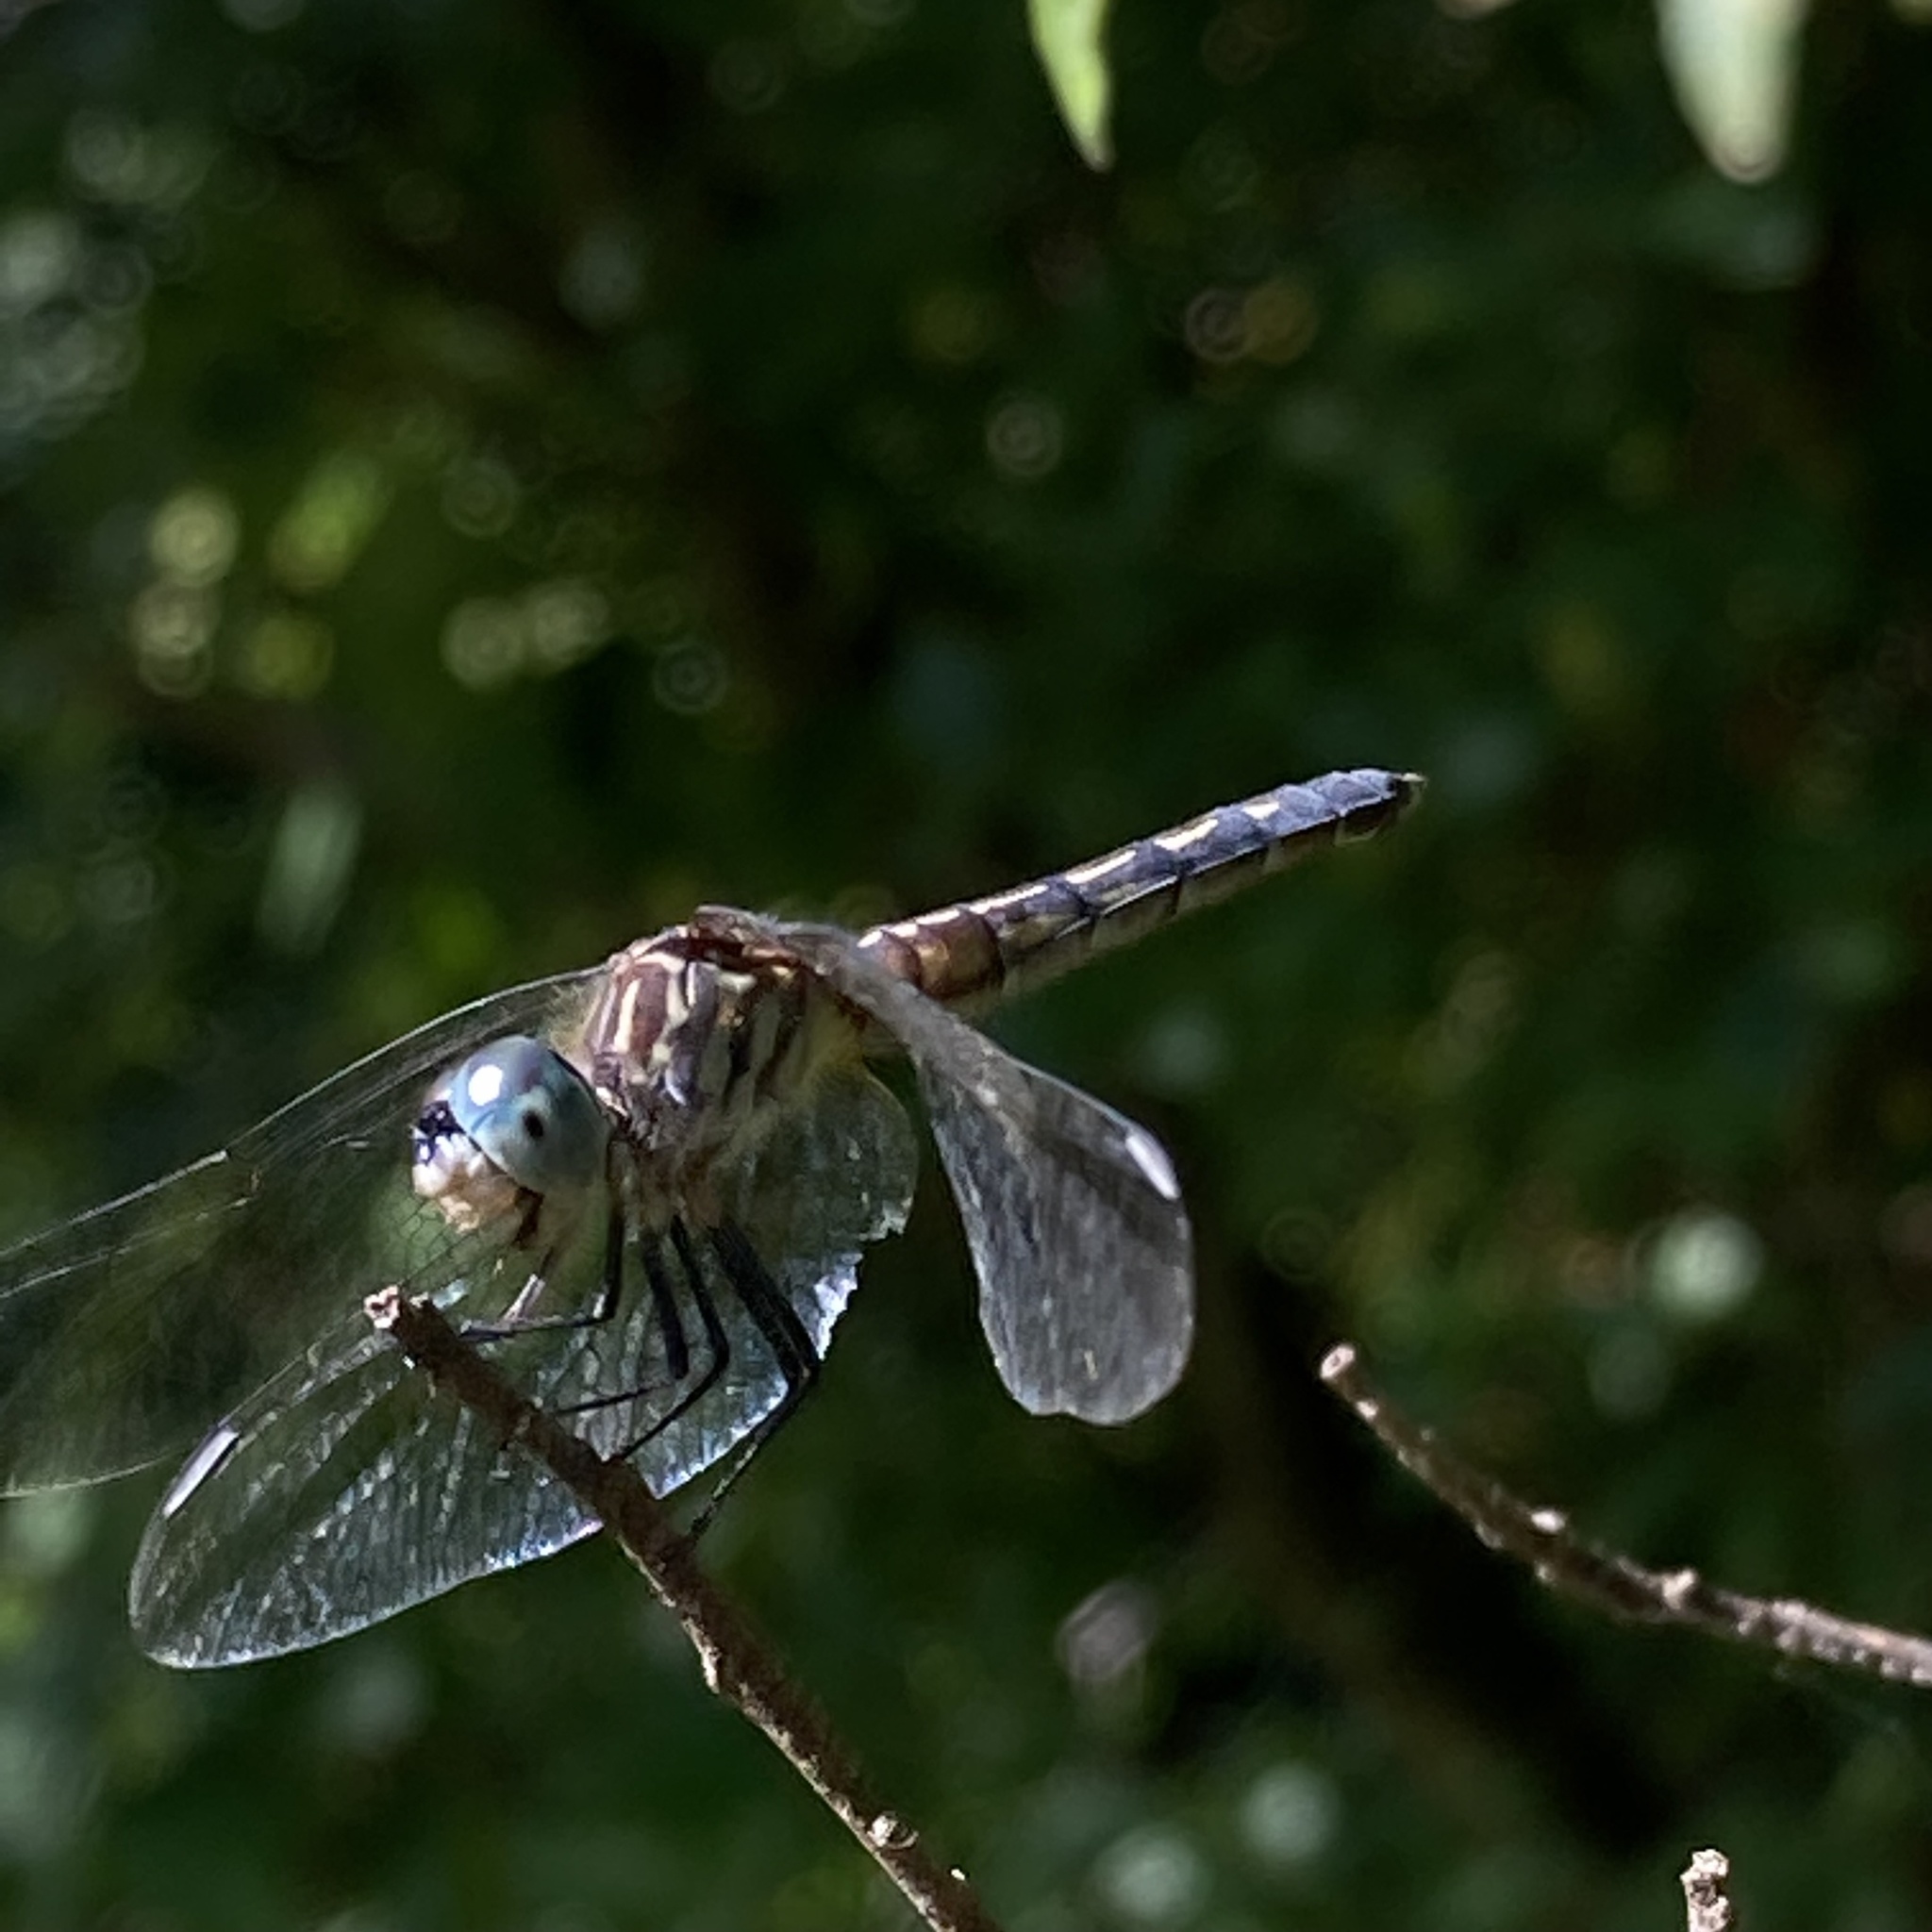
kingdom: Animalia
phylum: Arthropoda
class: Insecta
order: Odonata
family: Libellulidae
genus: Pachydiplax
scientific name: Pachydiplax longipennis
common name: Blue dasher
